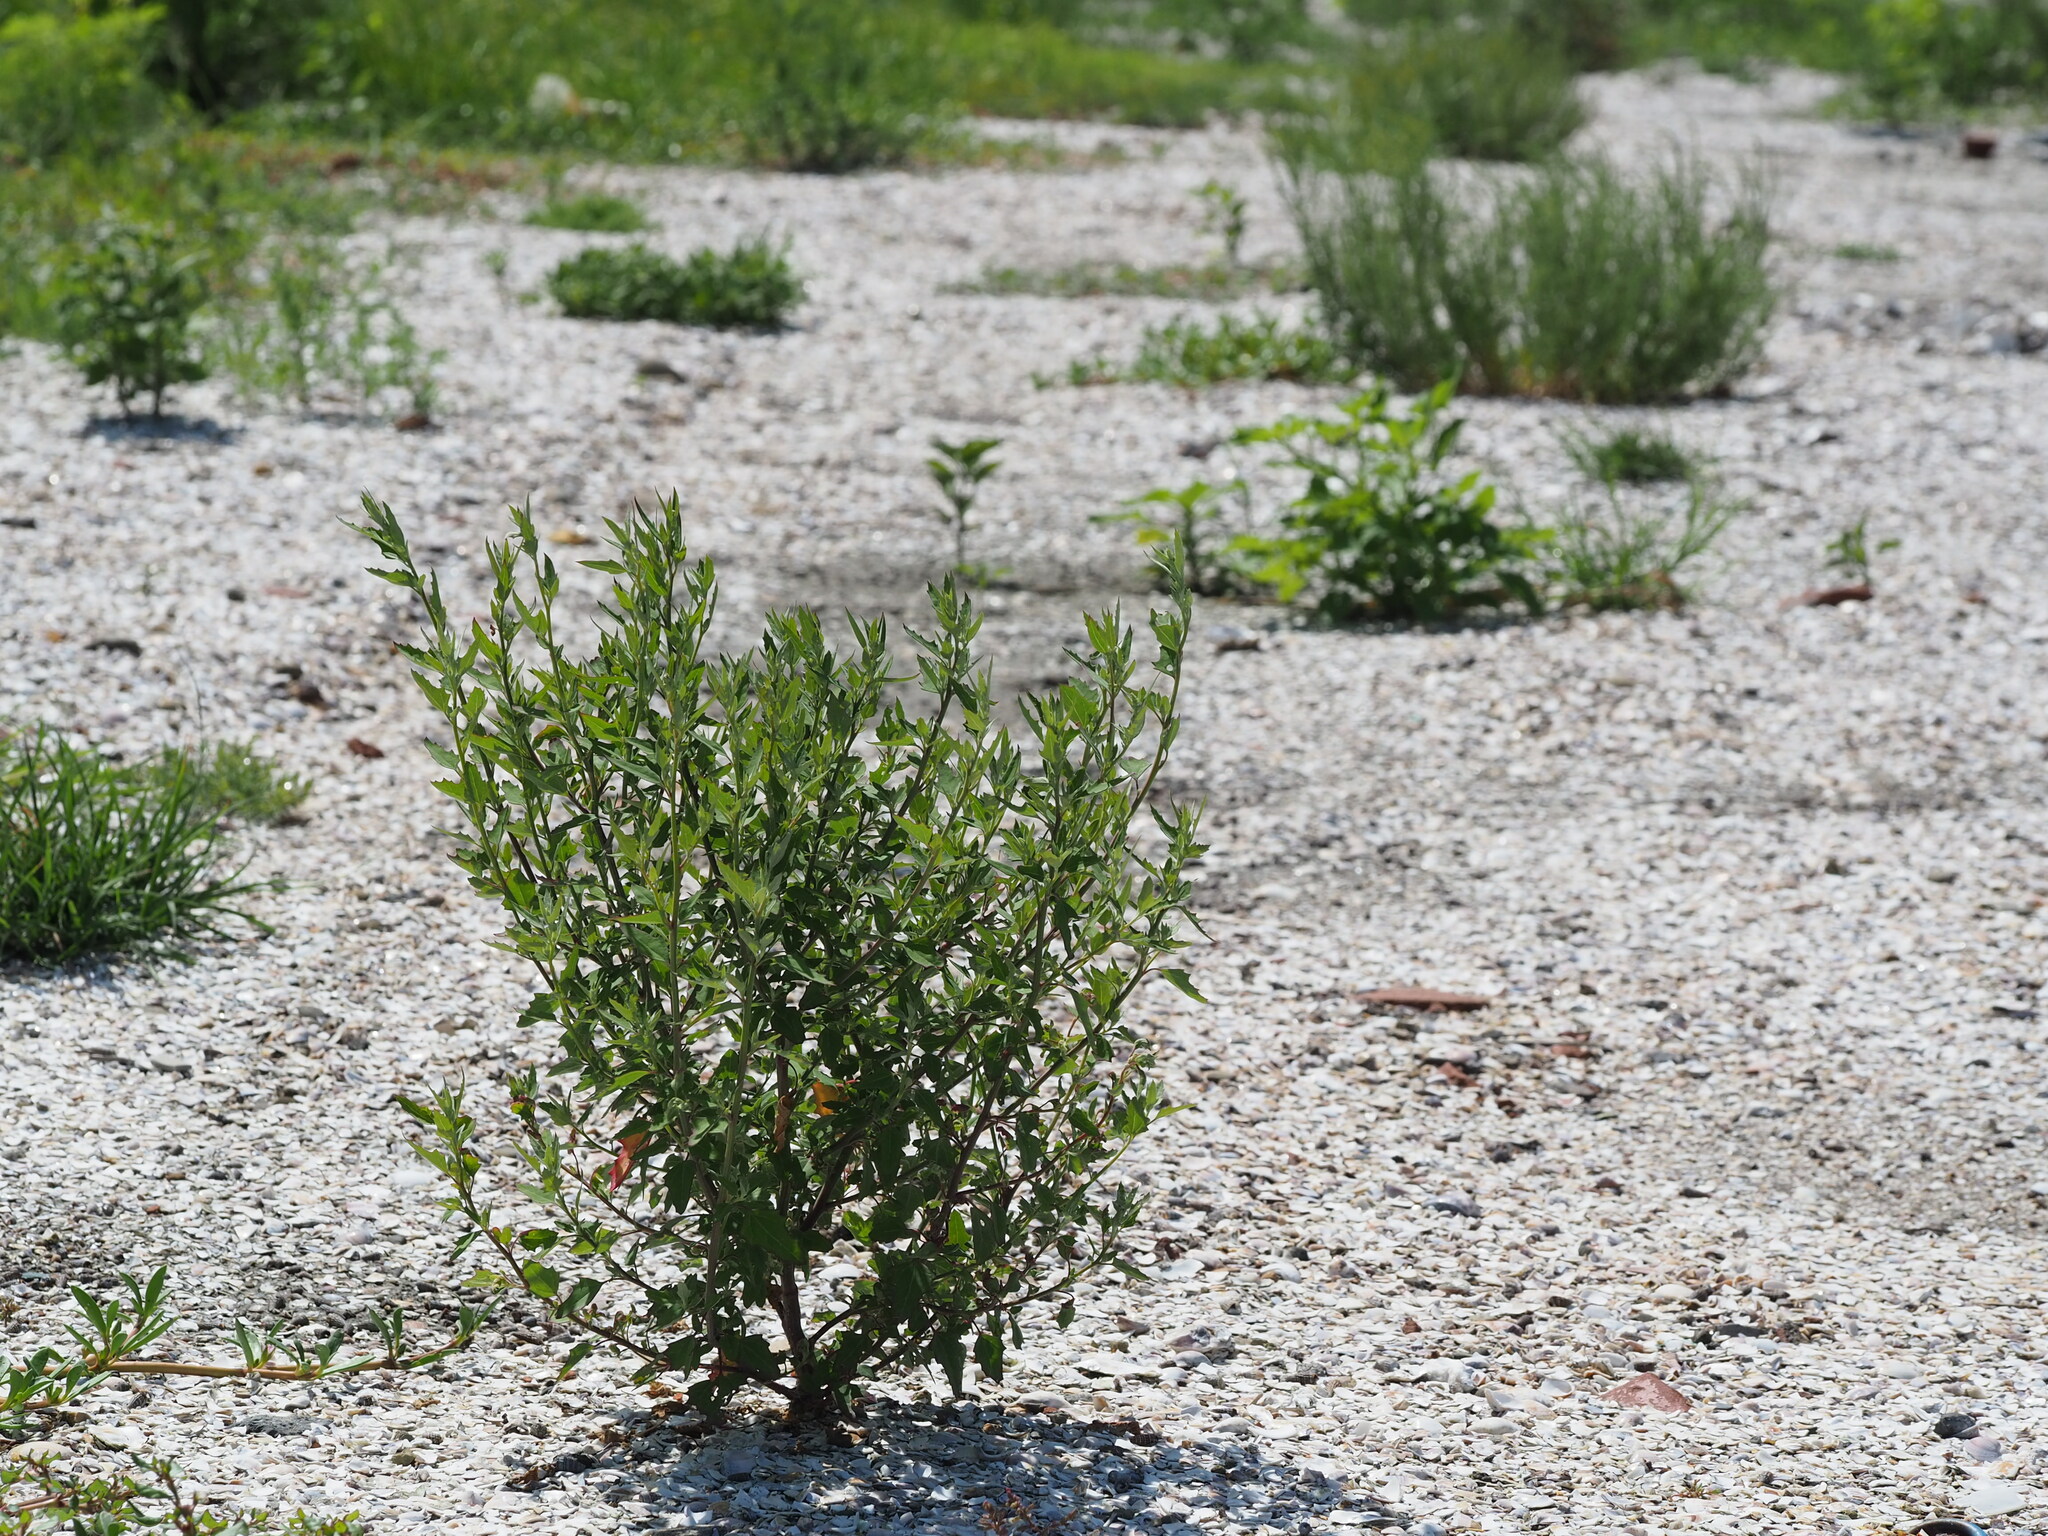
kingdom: Plantae
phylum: Tracheophyta
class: Magnoliopsida
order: Caryophyllales
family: Amaranthaceae
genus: Chenopodium
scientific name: Chenopodium album
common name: Fat-hen
